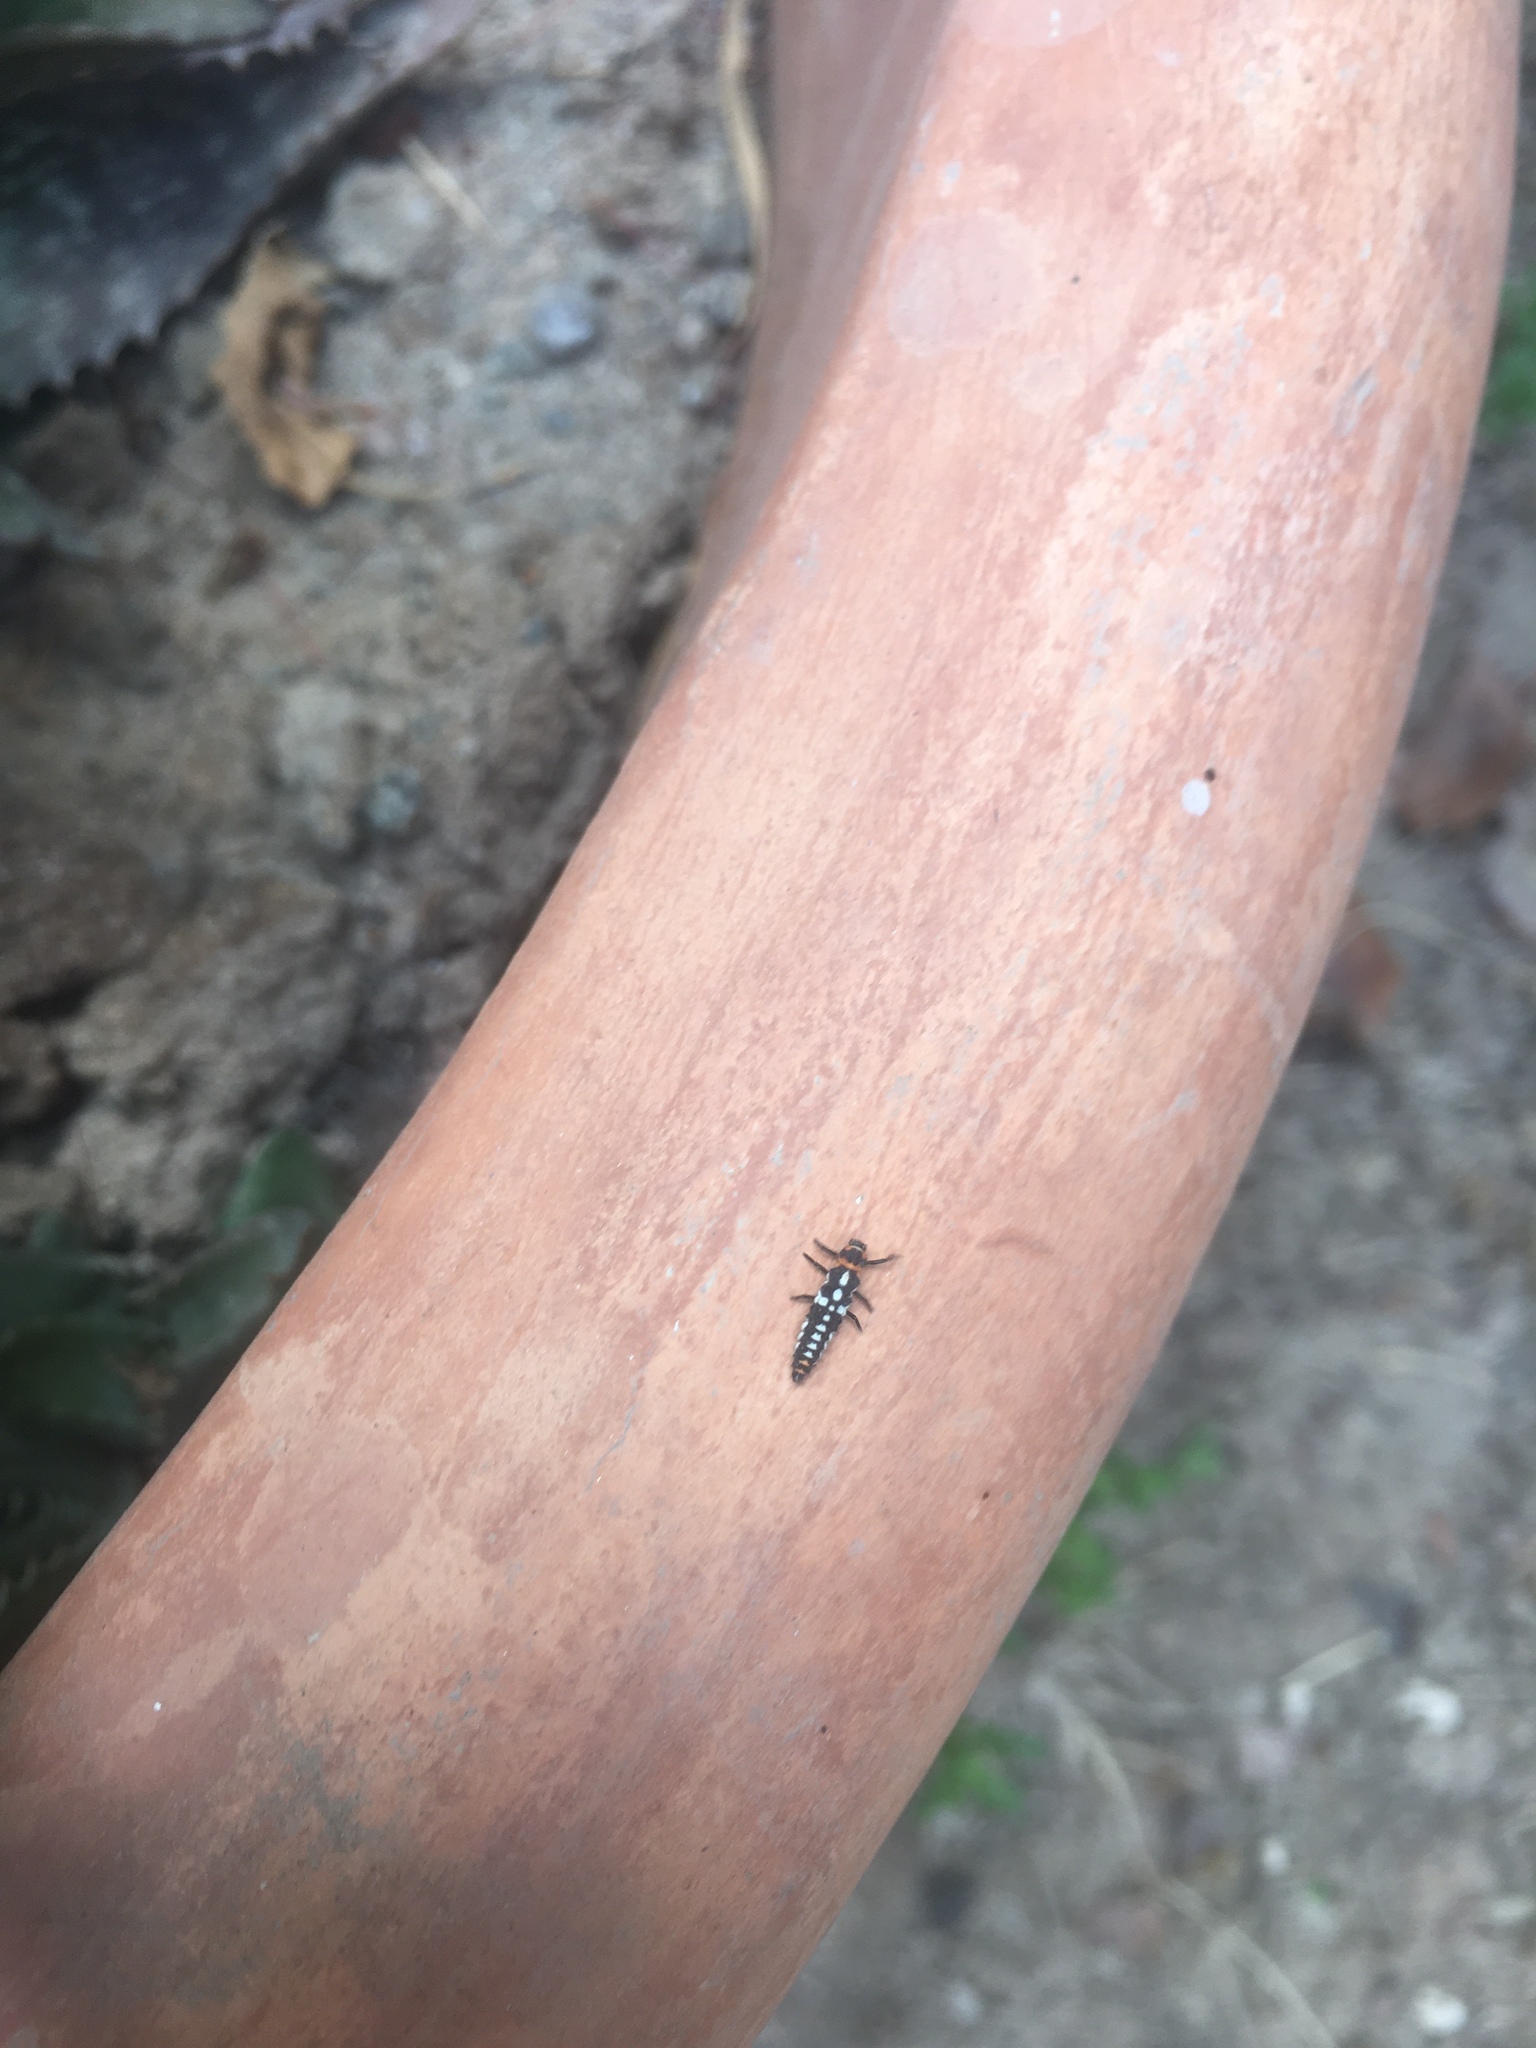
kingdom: Animalia
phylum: Arthropoda
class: Insecta
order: Coleoptera
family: Coccinellidae
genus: Eriopis
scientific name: Eriopis connexa
